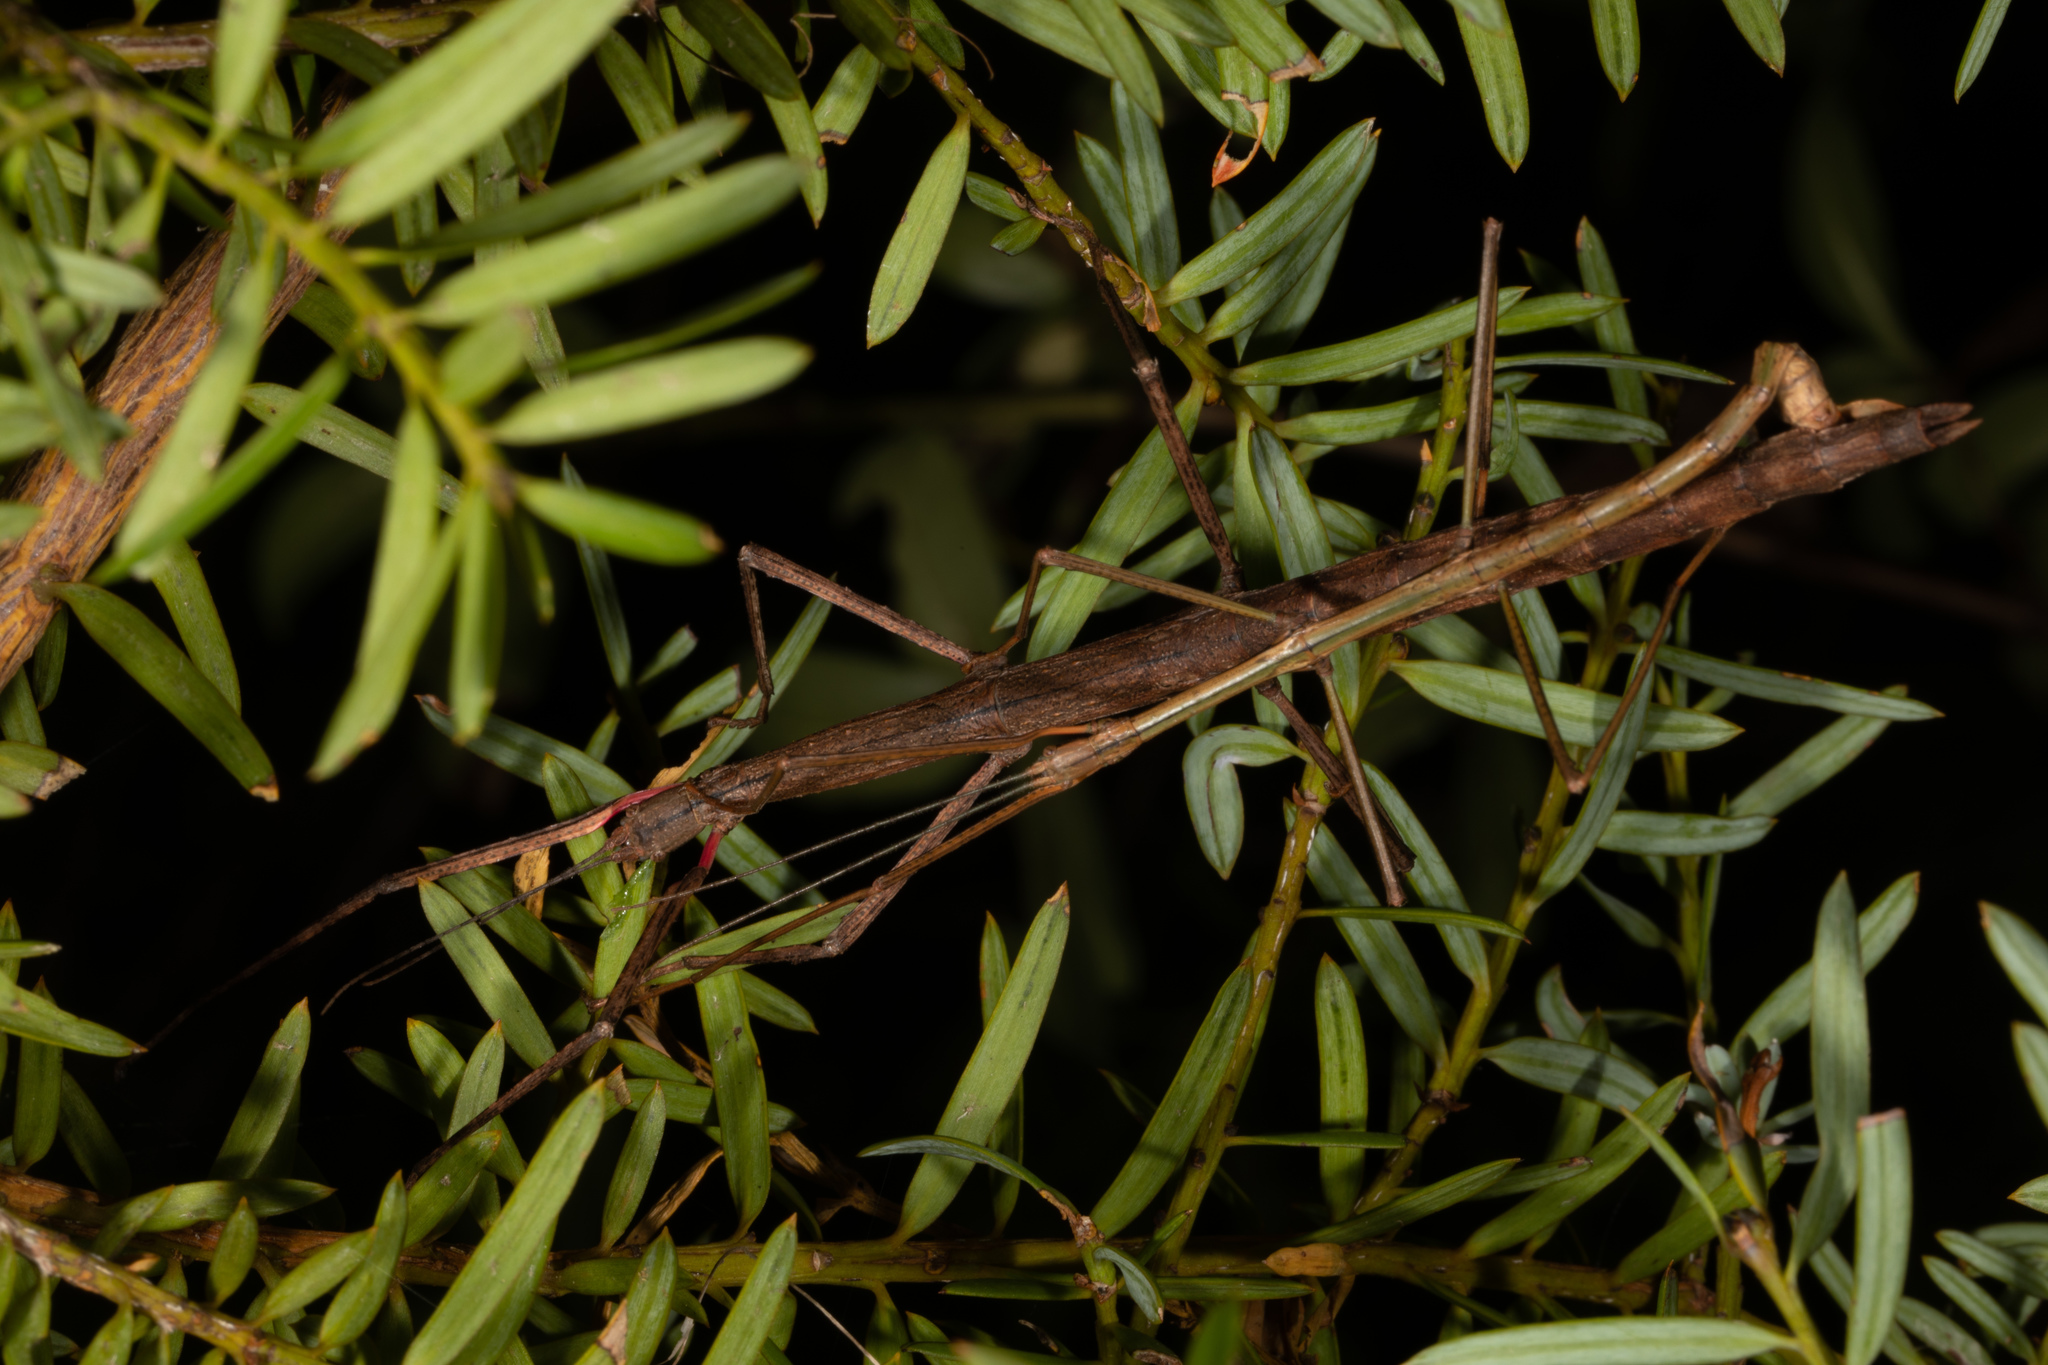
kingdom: Animalia
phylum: Arthropoda
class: Insecta
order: Phasmida
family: Phasmatidae
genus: Clitarchus
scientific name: Clitarchus hookeri
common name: Smooth stick insect
